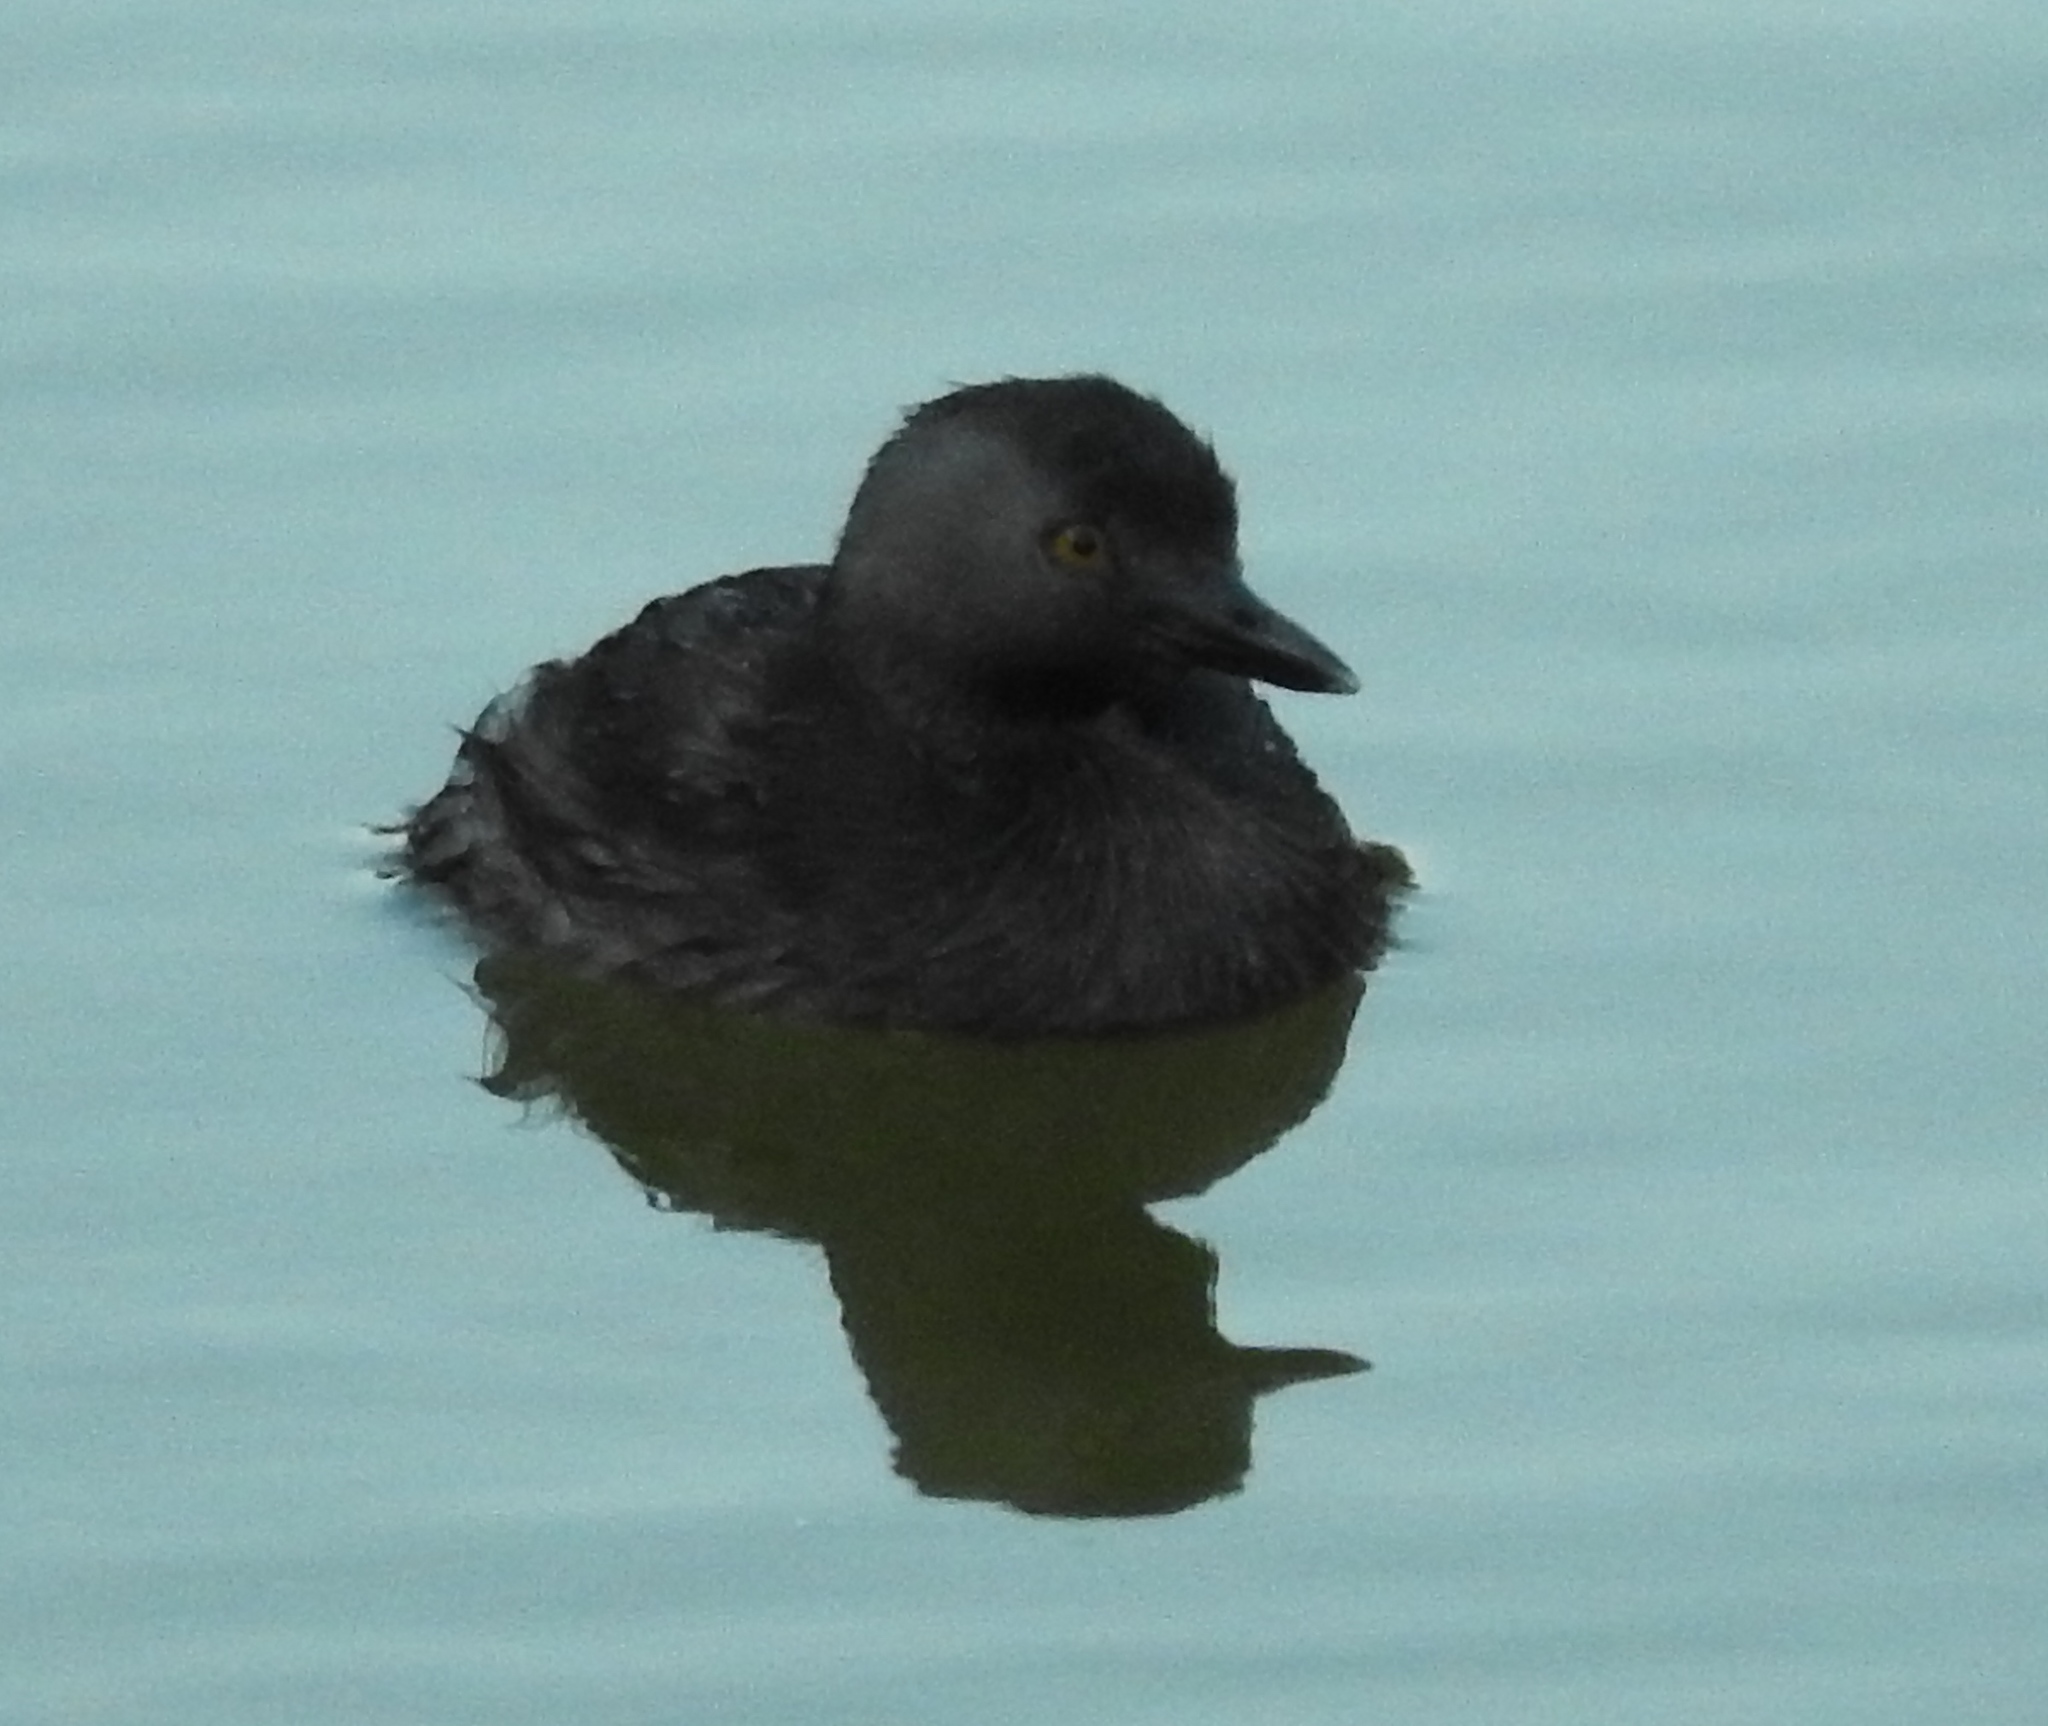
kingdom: Animalia
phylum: Chordata
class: Aves
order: Podicipediformes
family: Podicipedidae
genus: Tachybaptus
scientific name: Tachybaptus dominicus
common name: Least grebe
